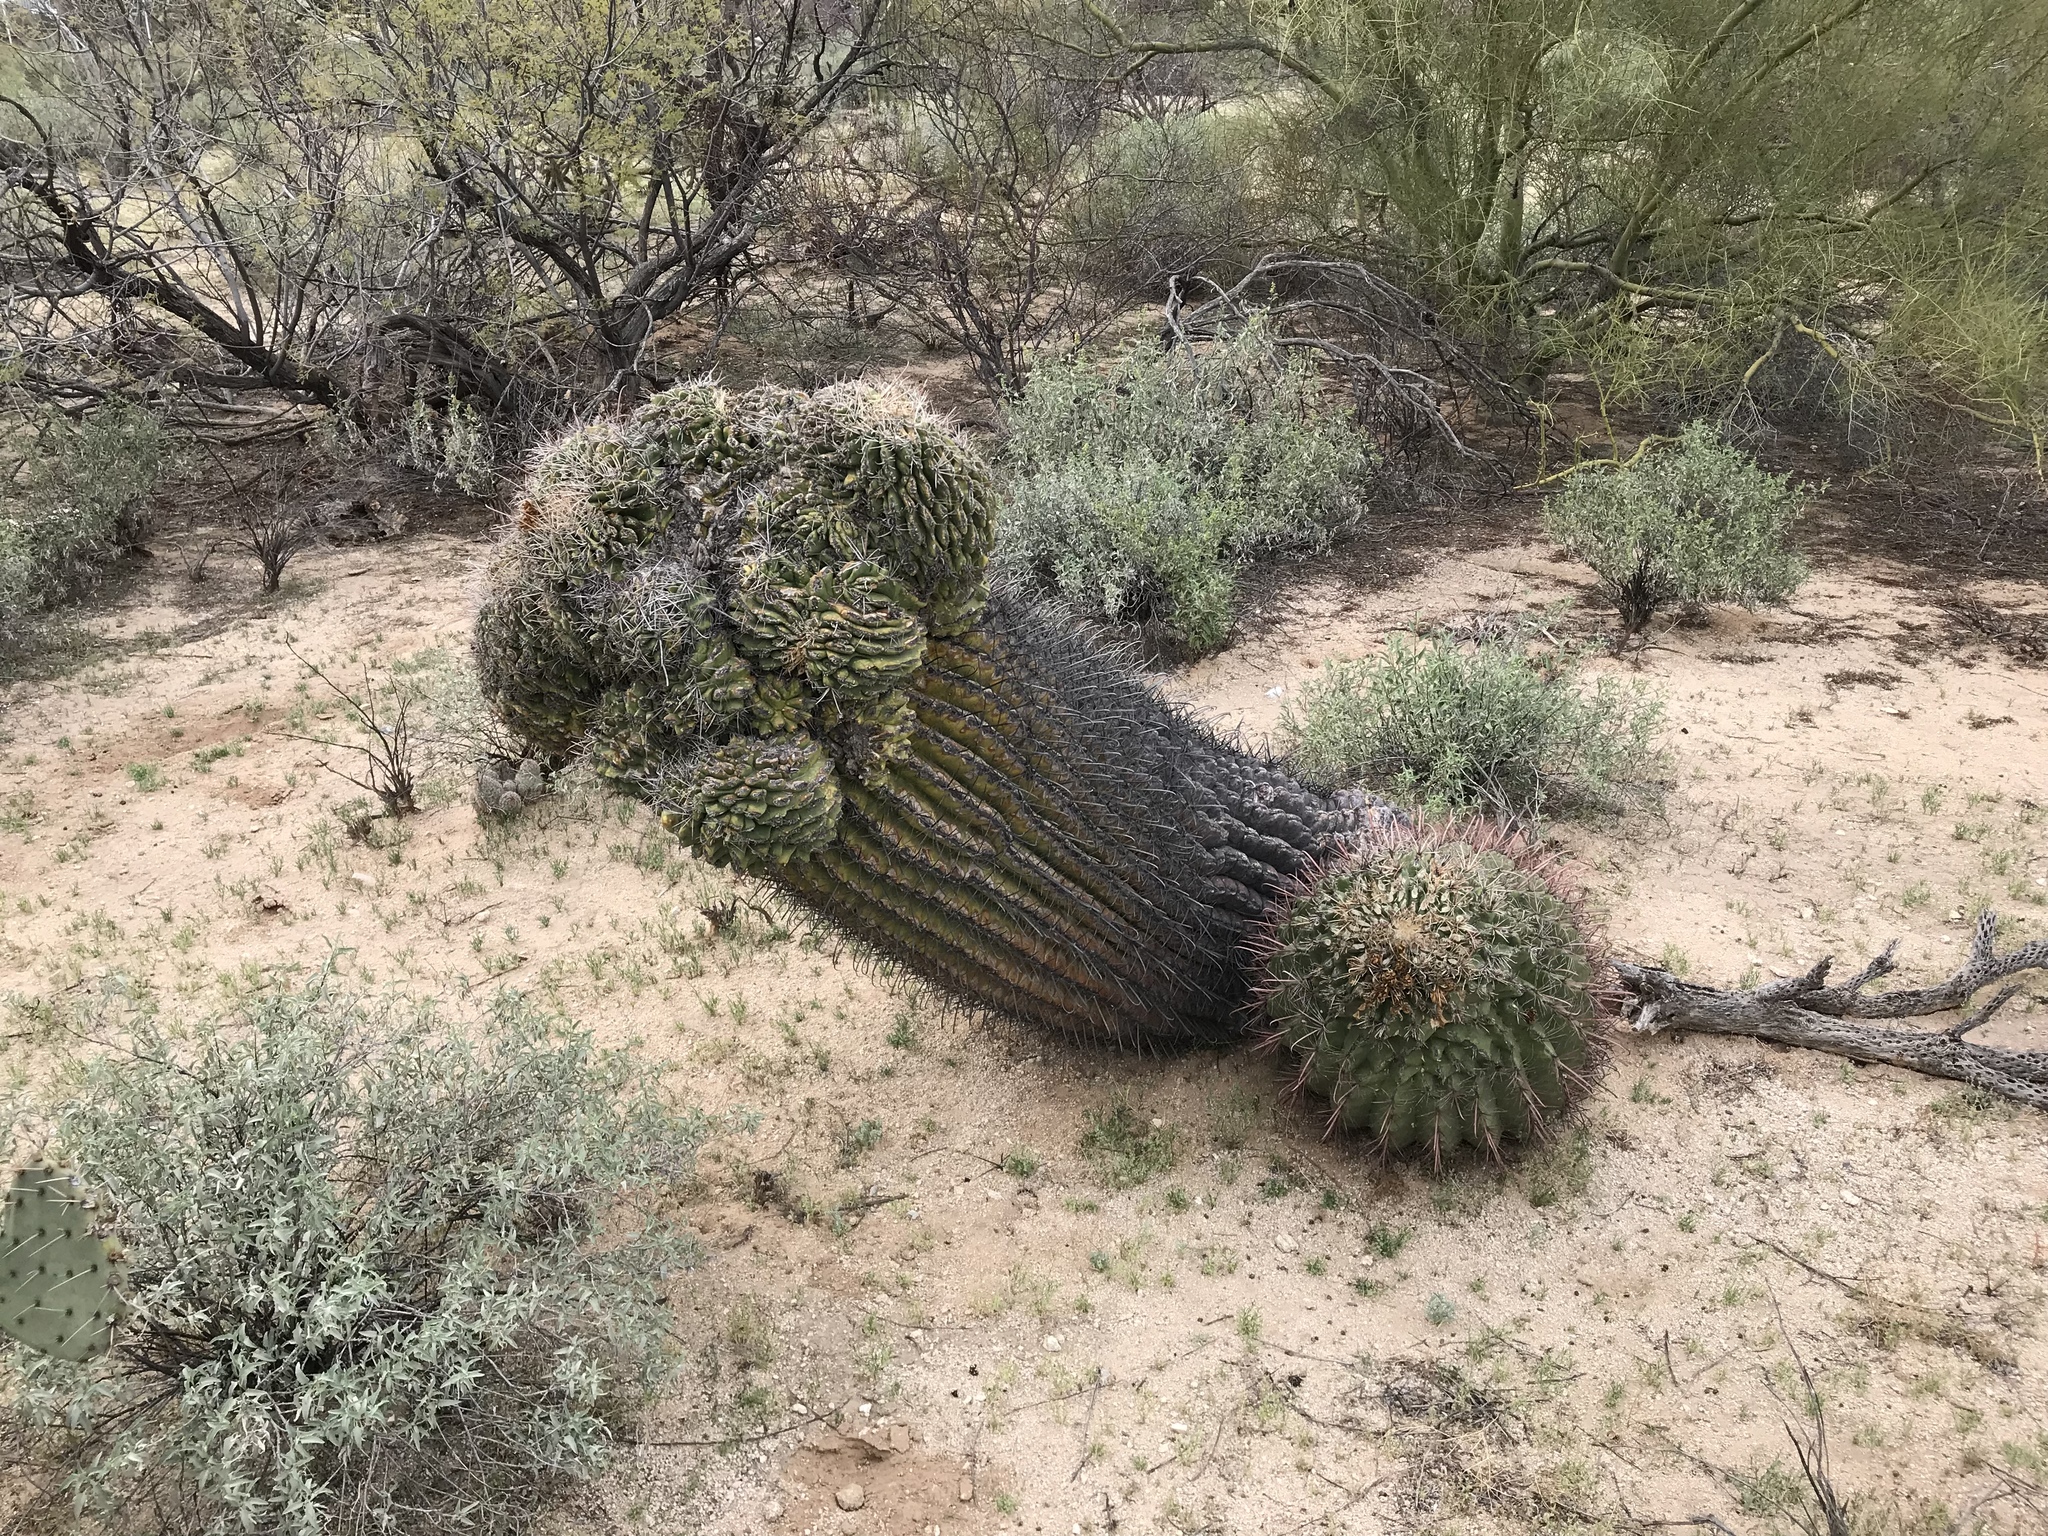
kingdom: Plantae
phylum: Tracheophyta
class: Magnoliopsida
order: Caryophyllales
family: Cactaceae
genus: Ferocactus
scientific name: Ferocactus wislizeni
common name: Candy barrel cactus
